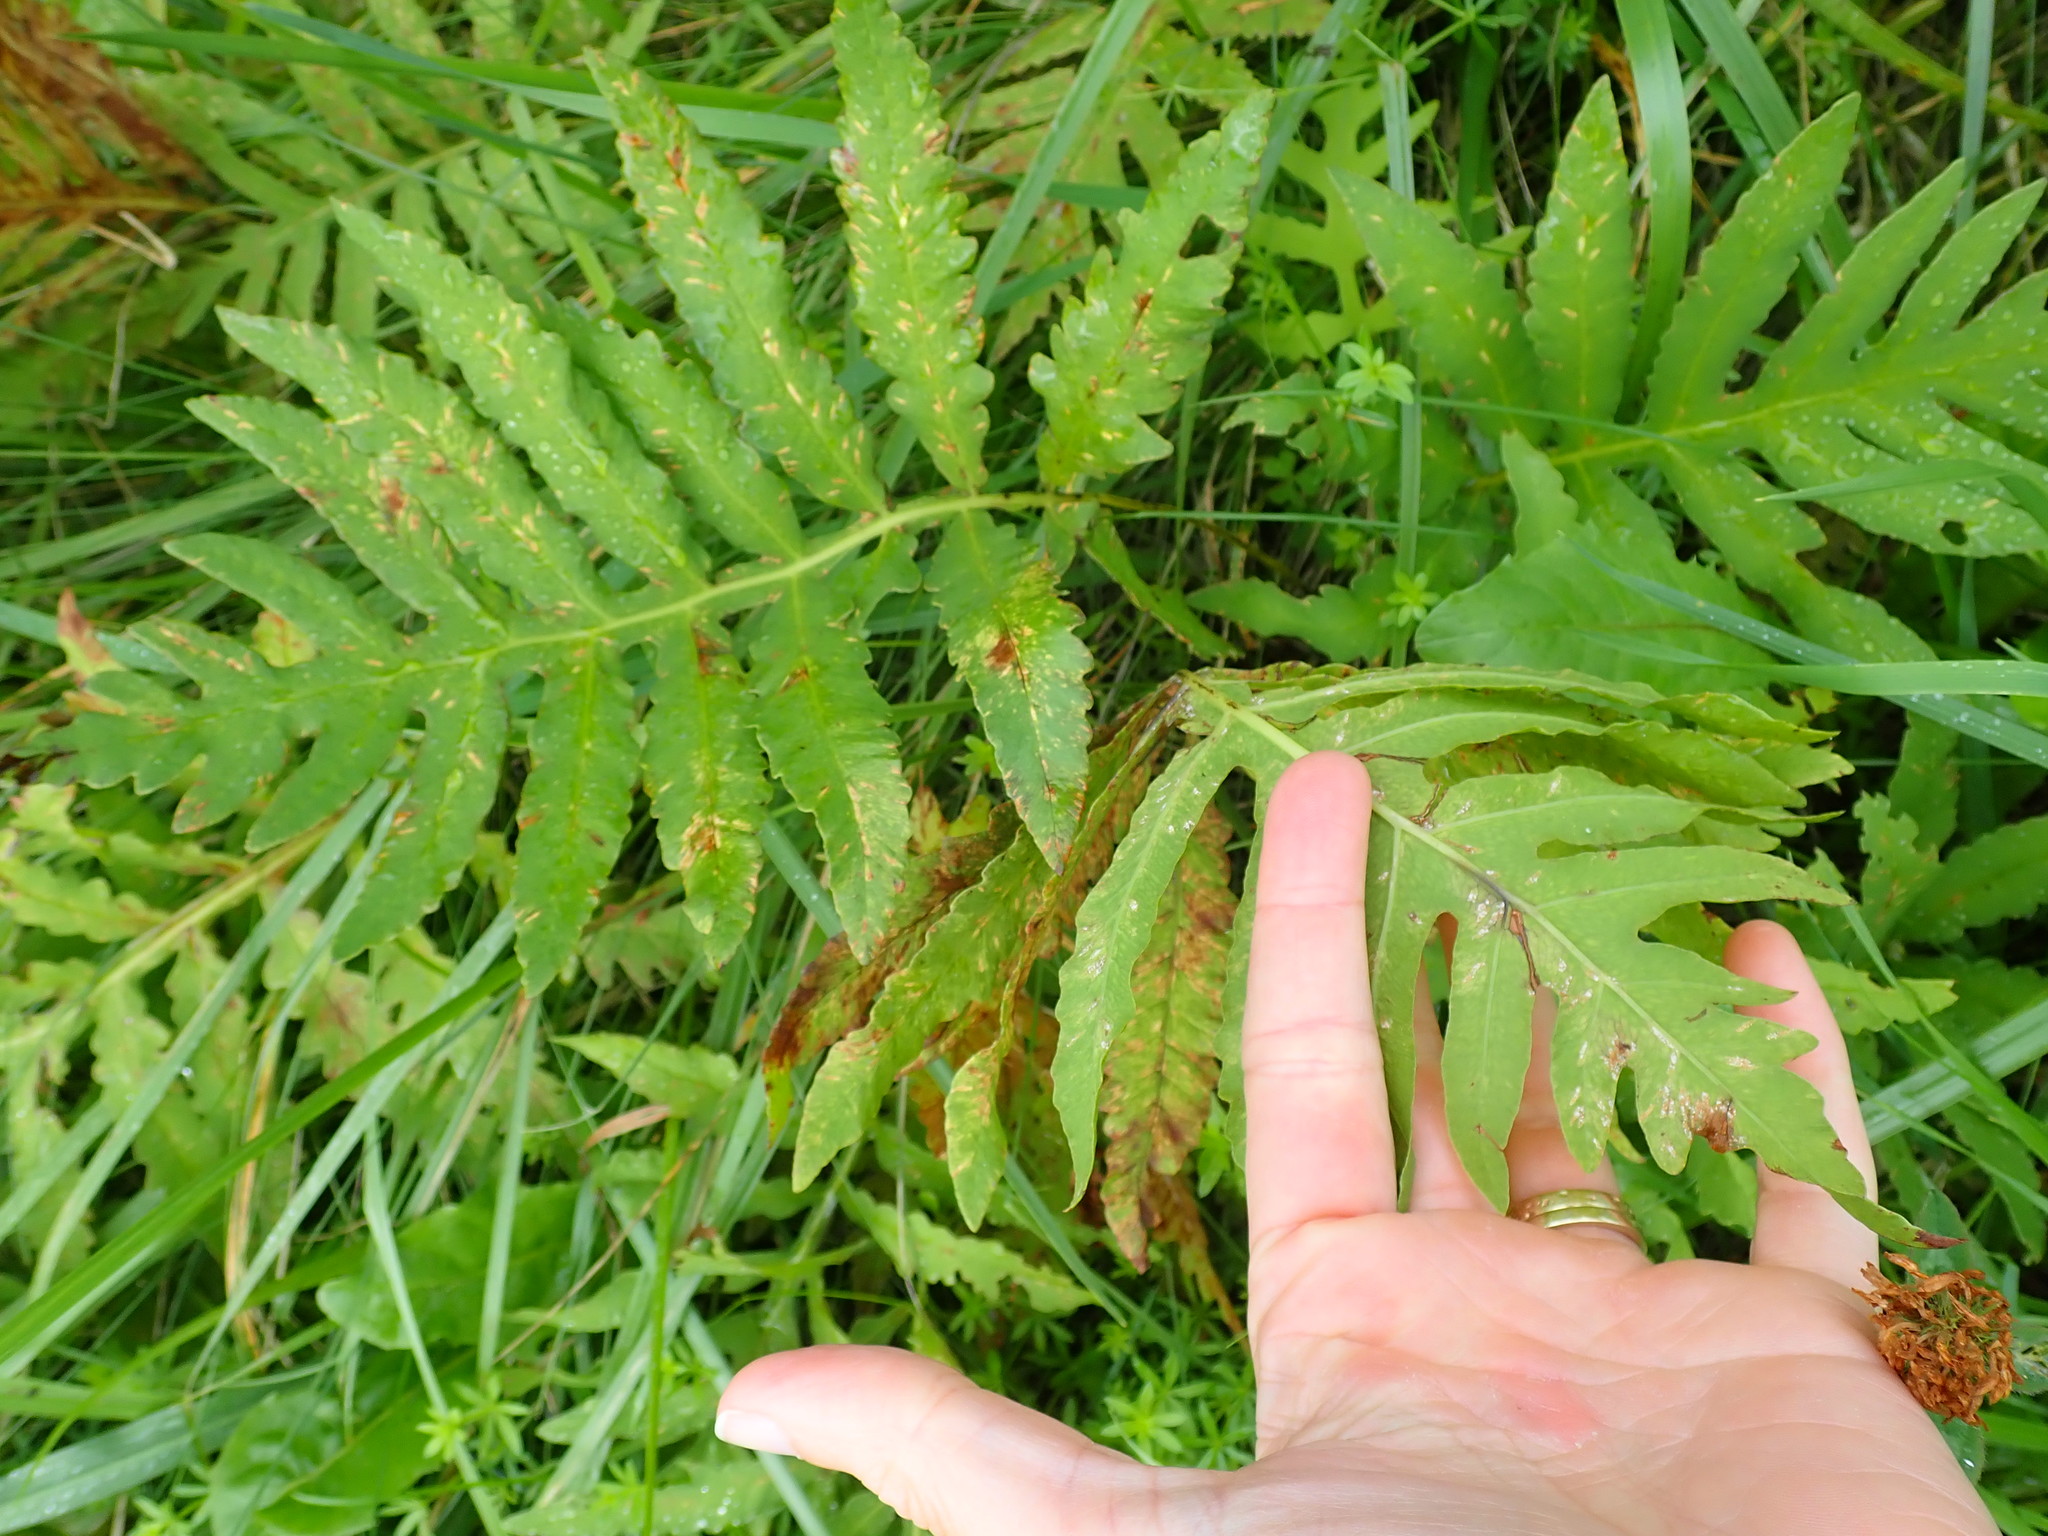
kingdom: Plantae
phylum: Tracheophyta
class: Polypodiopsida
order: Polypodiales
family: Onocleaceae
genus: Onoclea
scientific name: Onoclea sensibilis
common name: Sensitive fern
